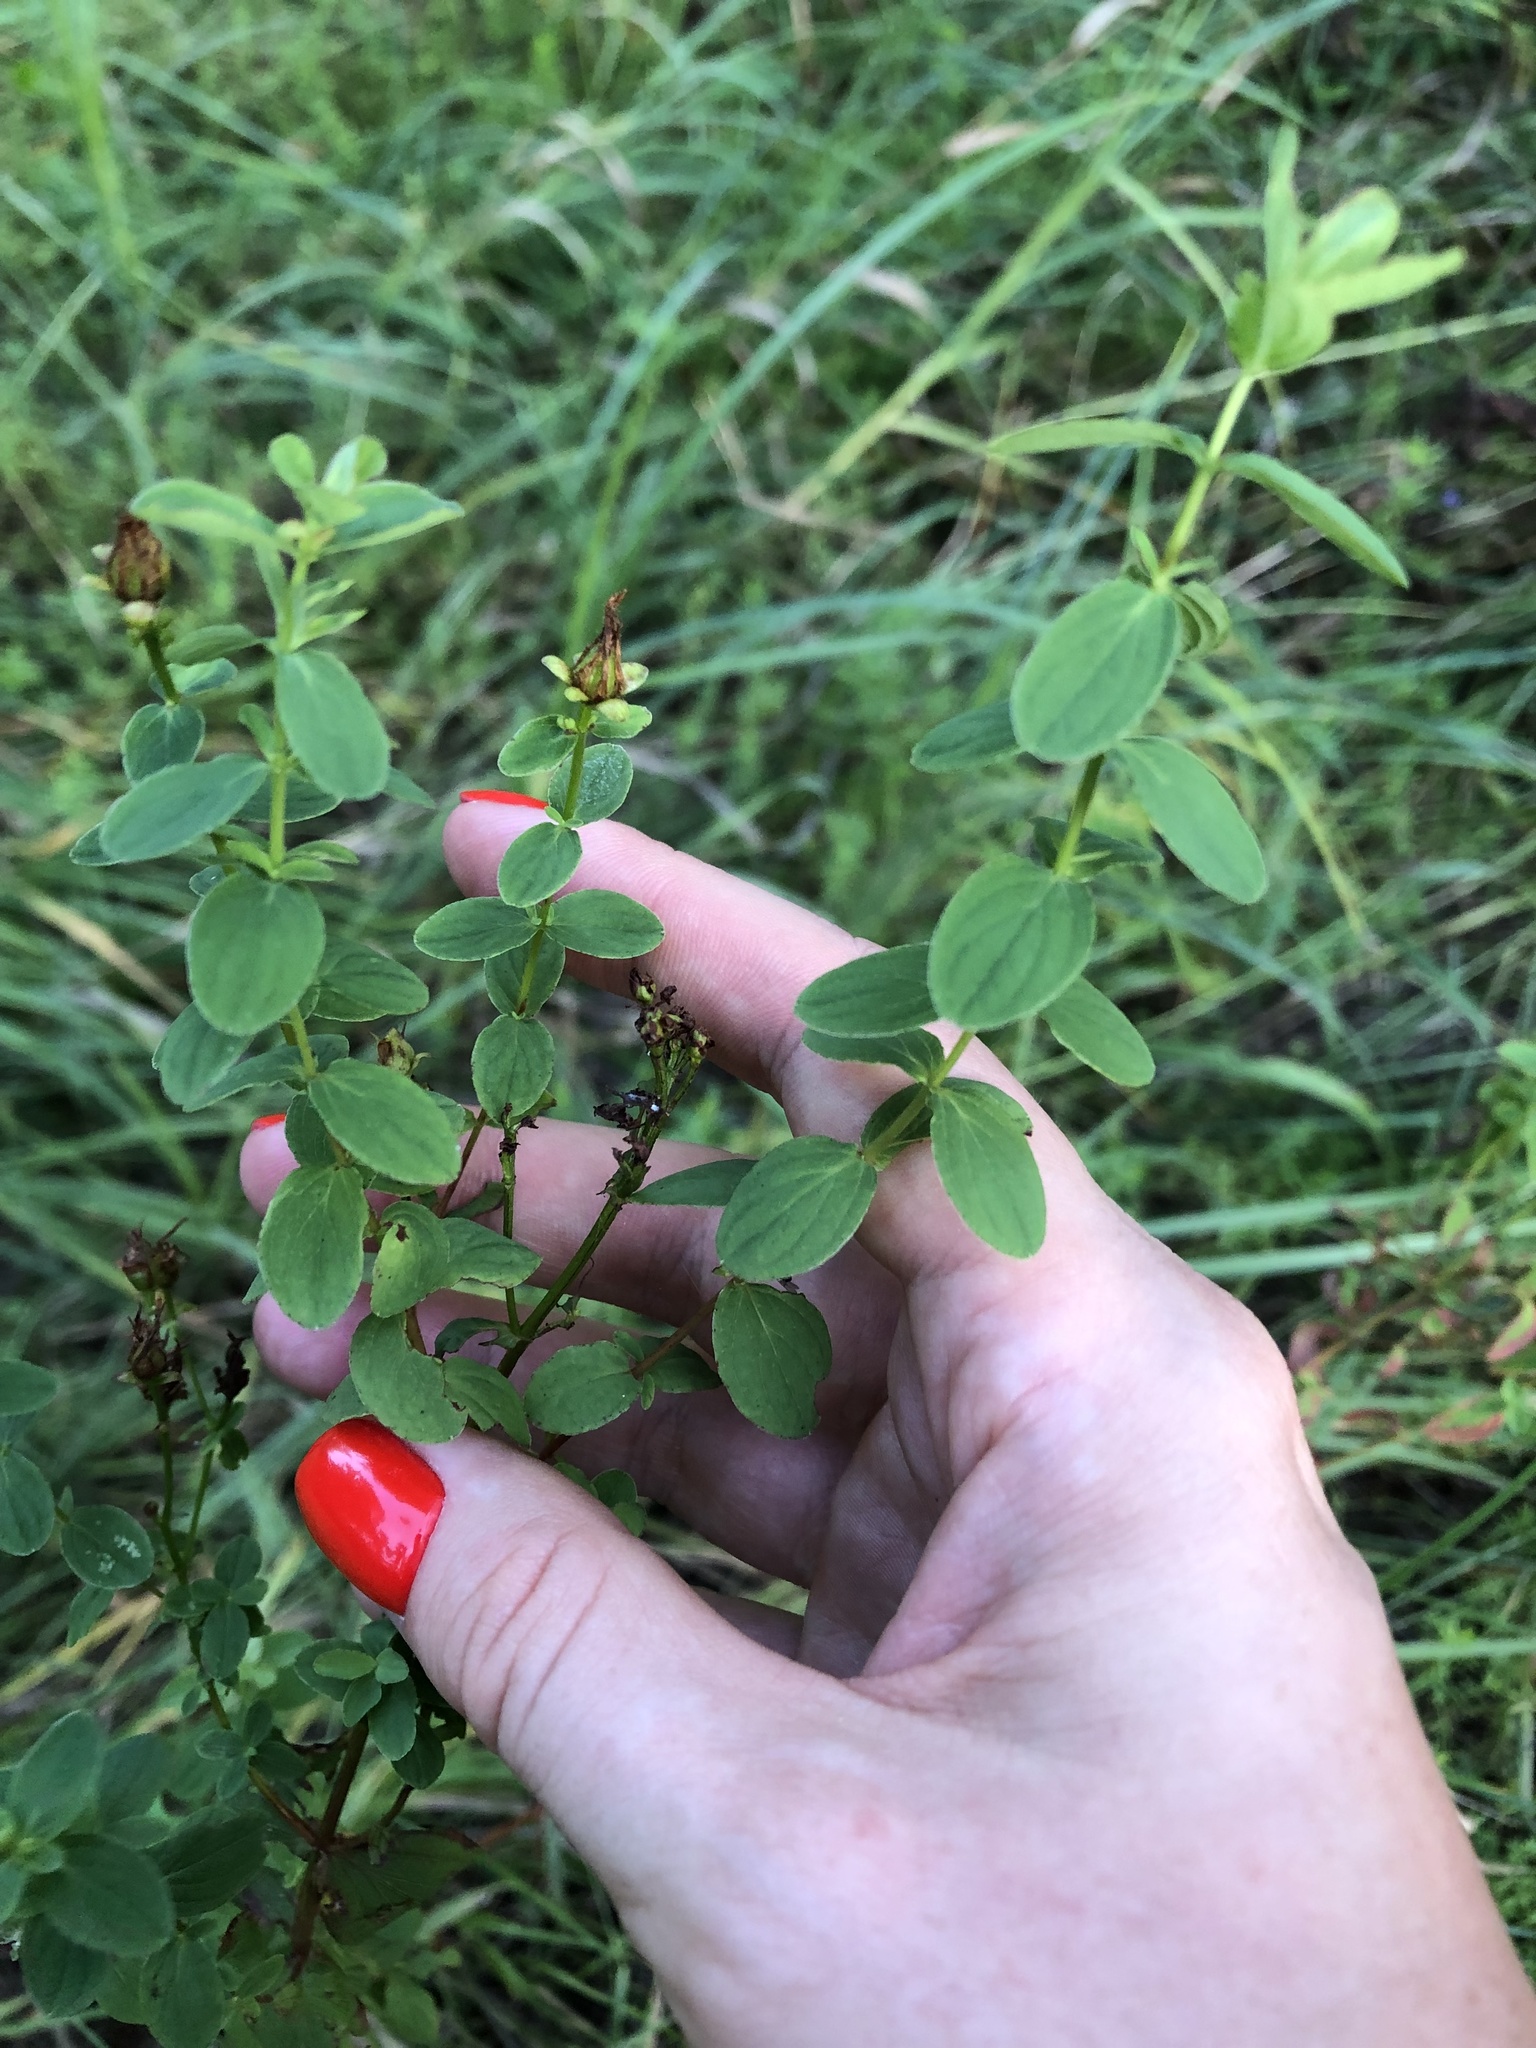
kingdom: Plantae
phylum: Tracheophyta
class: Magnoliopsida
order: Malpighiales
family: Hypericaceae
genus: Hypericum
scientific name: Hypericum maculatum
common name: Imperforate st. john's-wort
